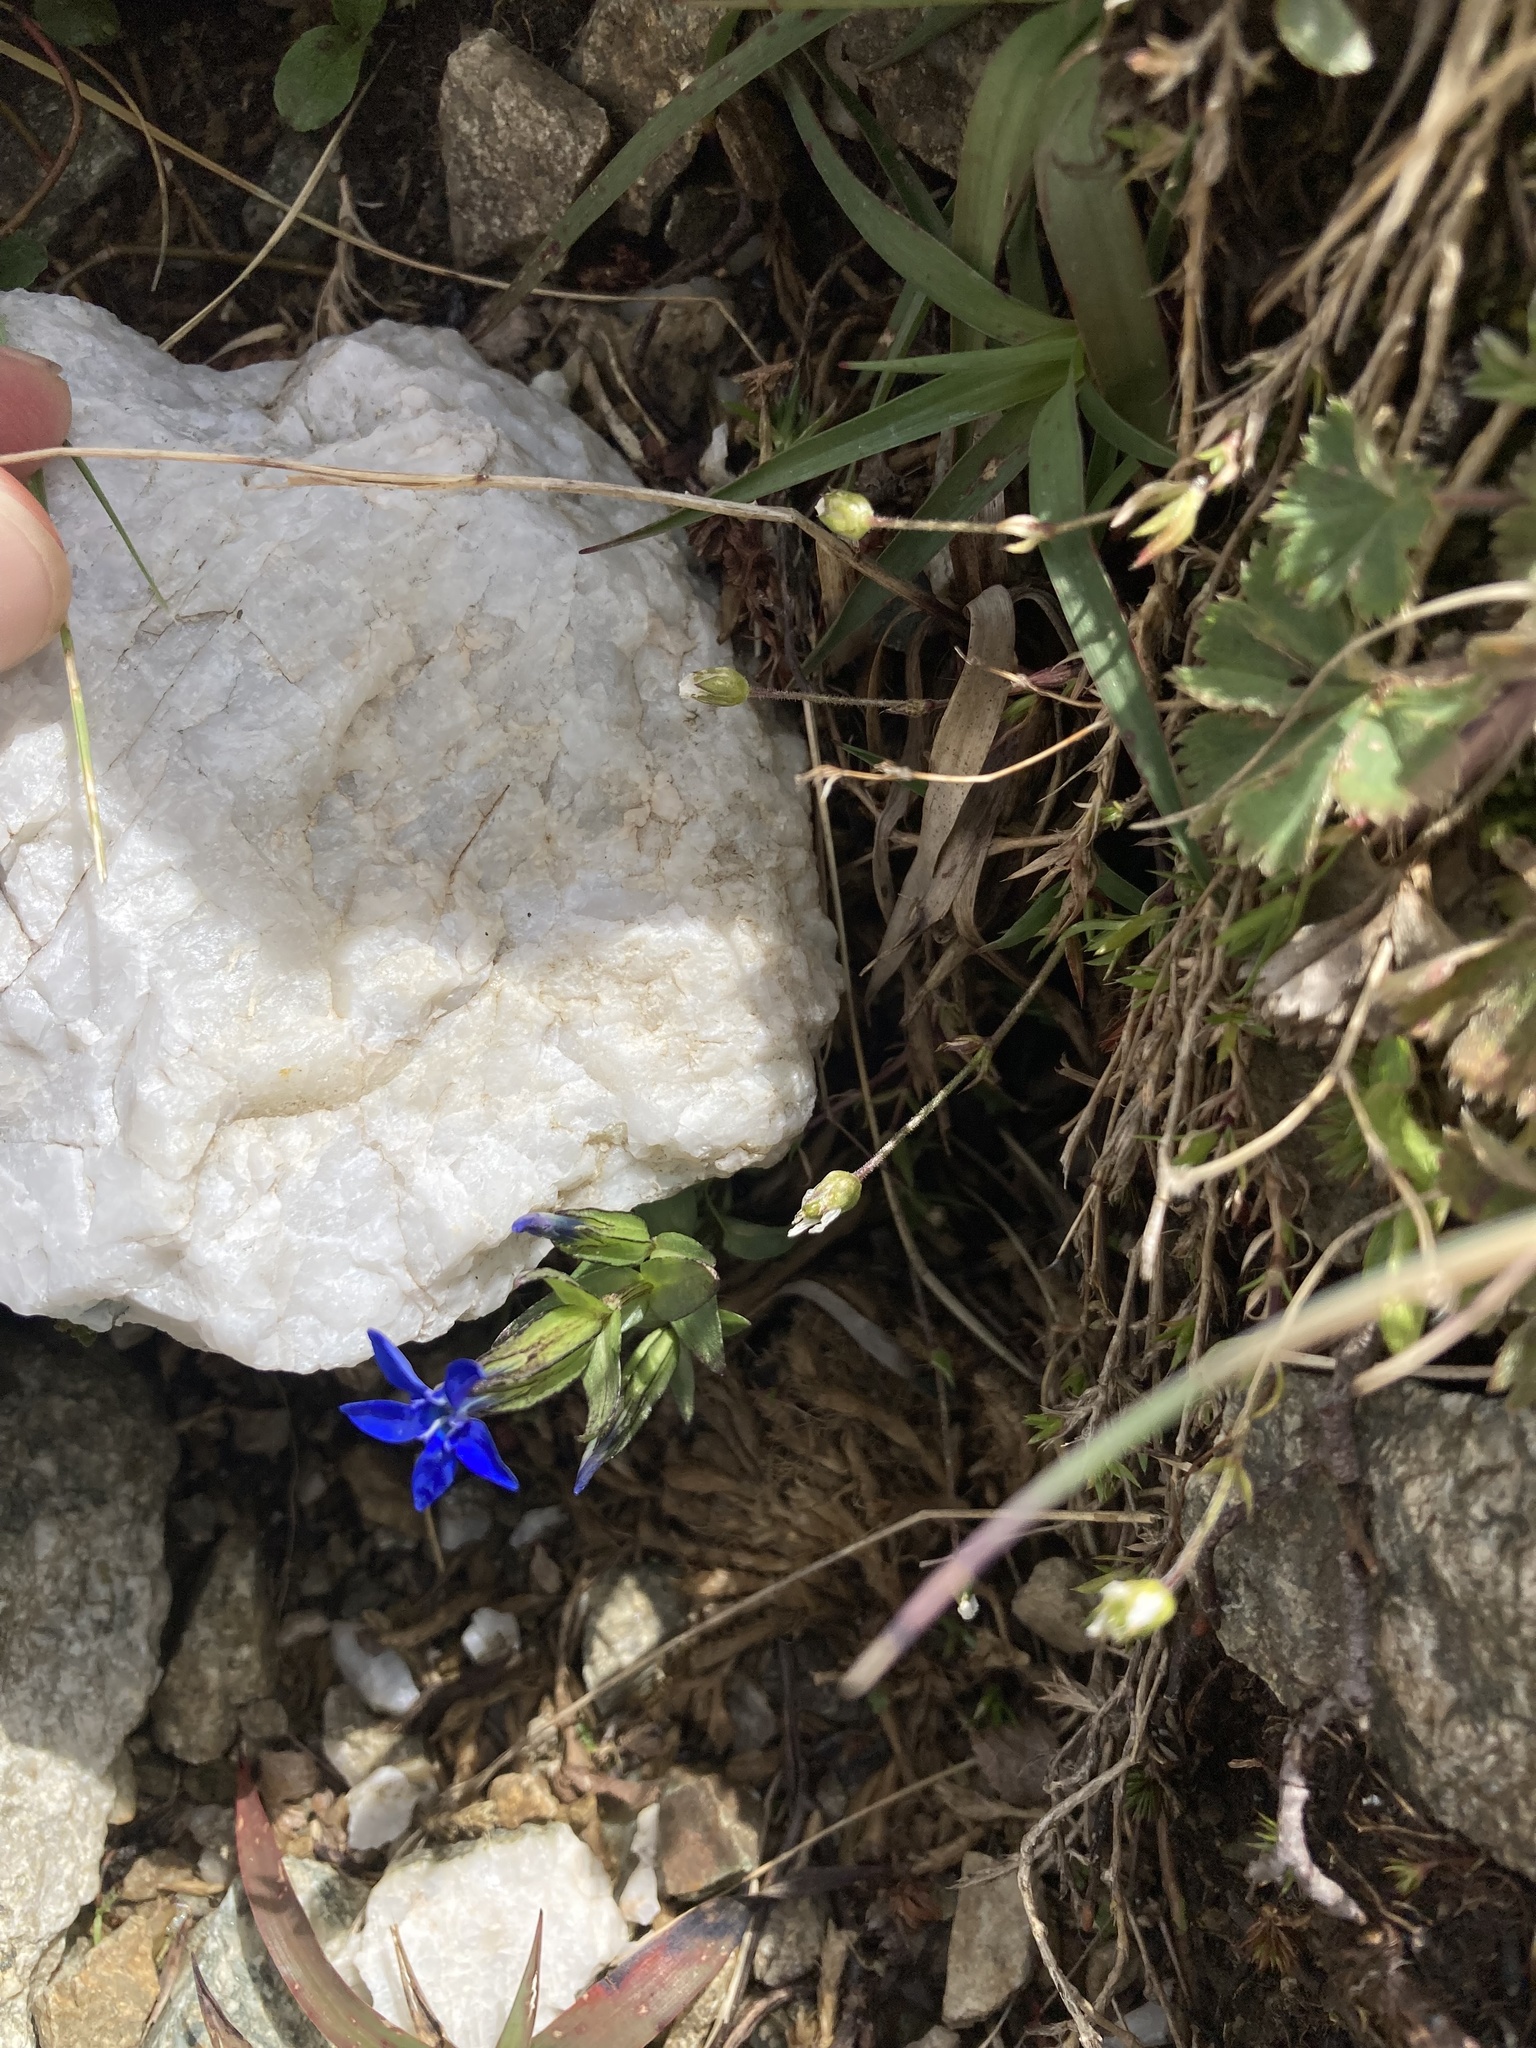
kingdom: Plantae
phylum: Tracheophyta
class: Magnoliopsida
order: Gentianales
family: Gentianaceae
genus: Gentiana
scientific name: Gentiana nivalis
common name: Alpine gentian
